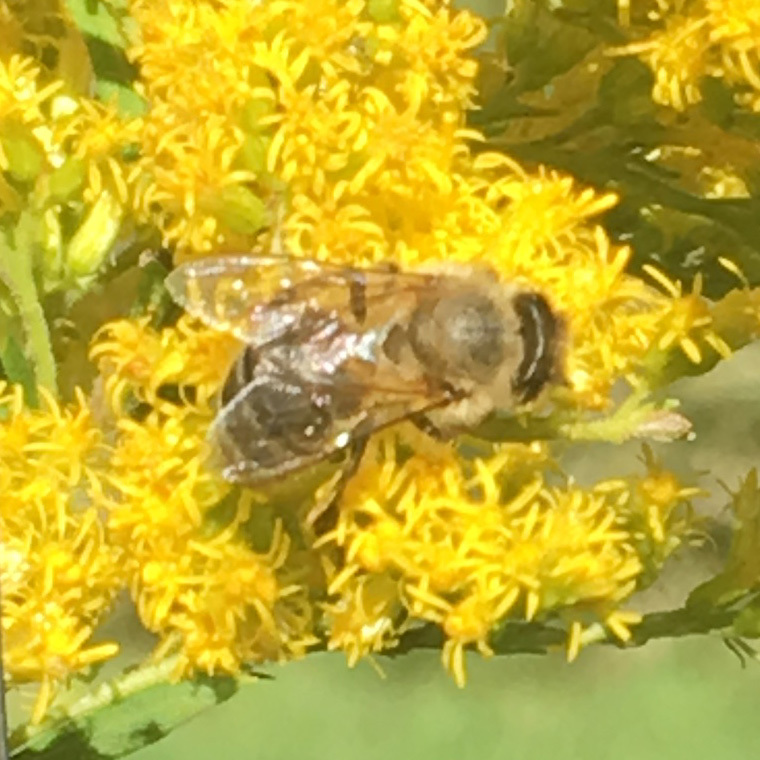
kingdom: Animalia
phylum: Arthropoda
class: Insecta
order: Hymenoptera
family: Apidae
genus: Apis
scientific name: Apis mellifera
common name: Honey bee
